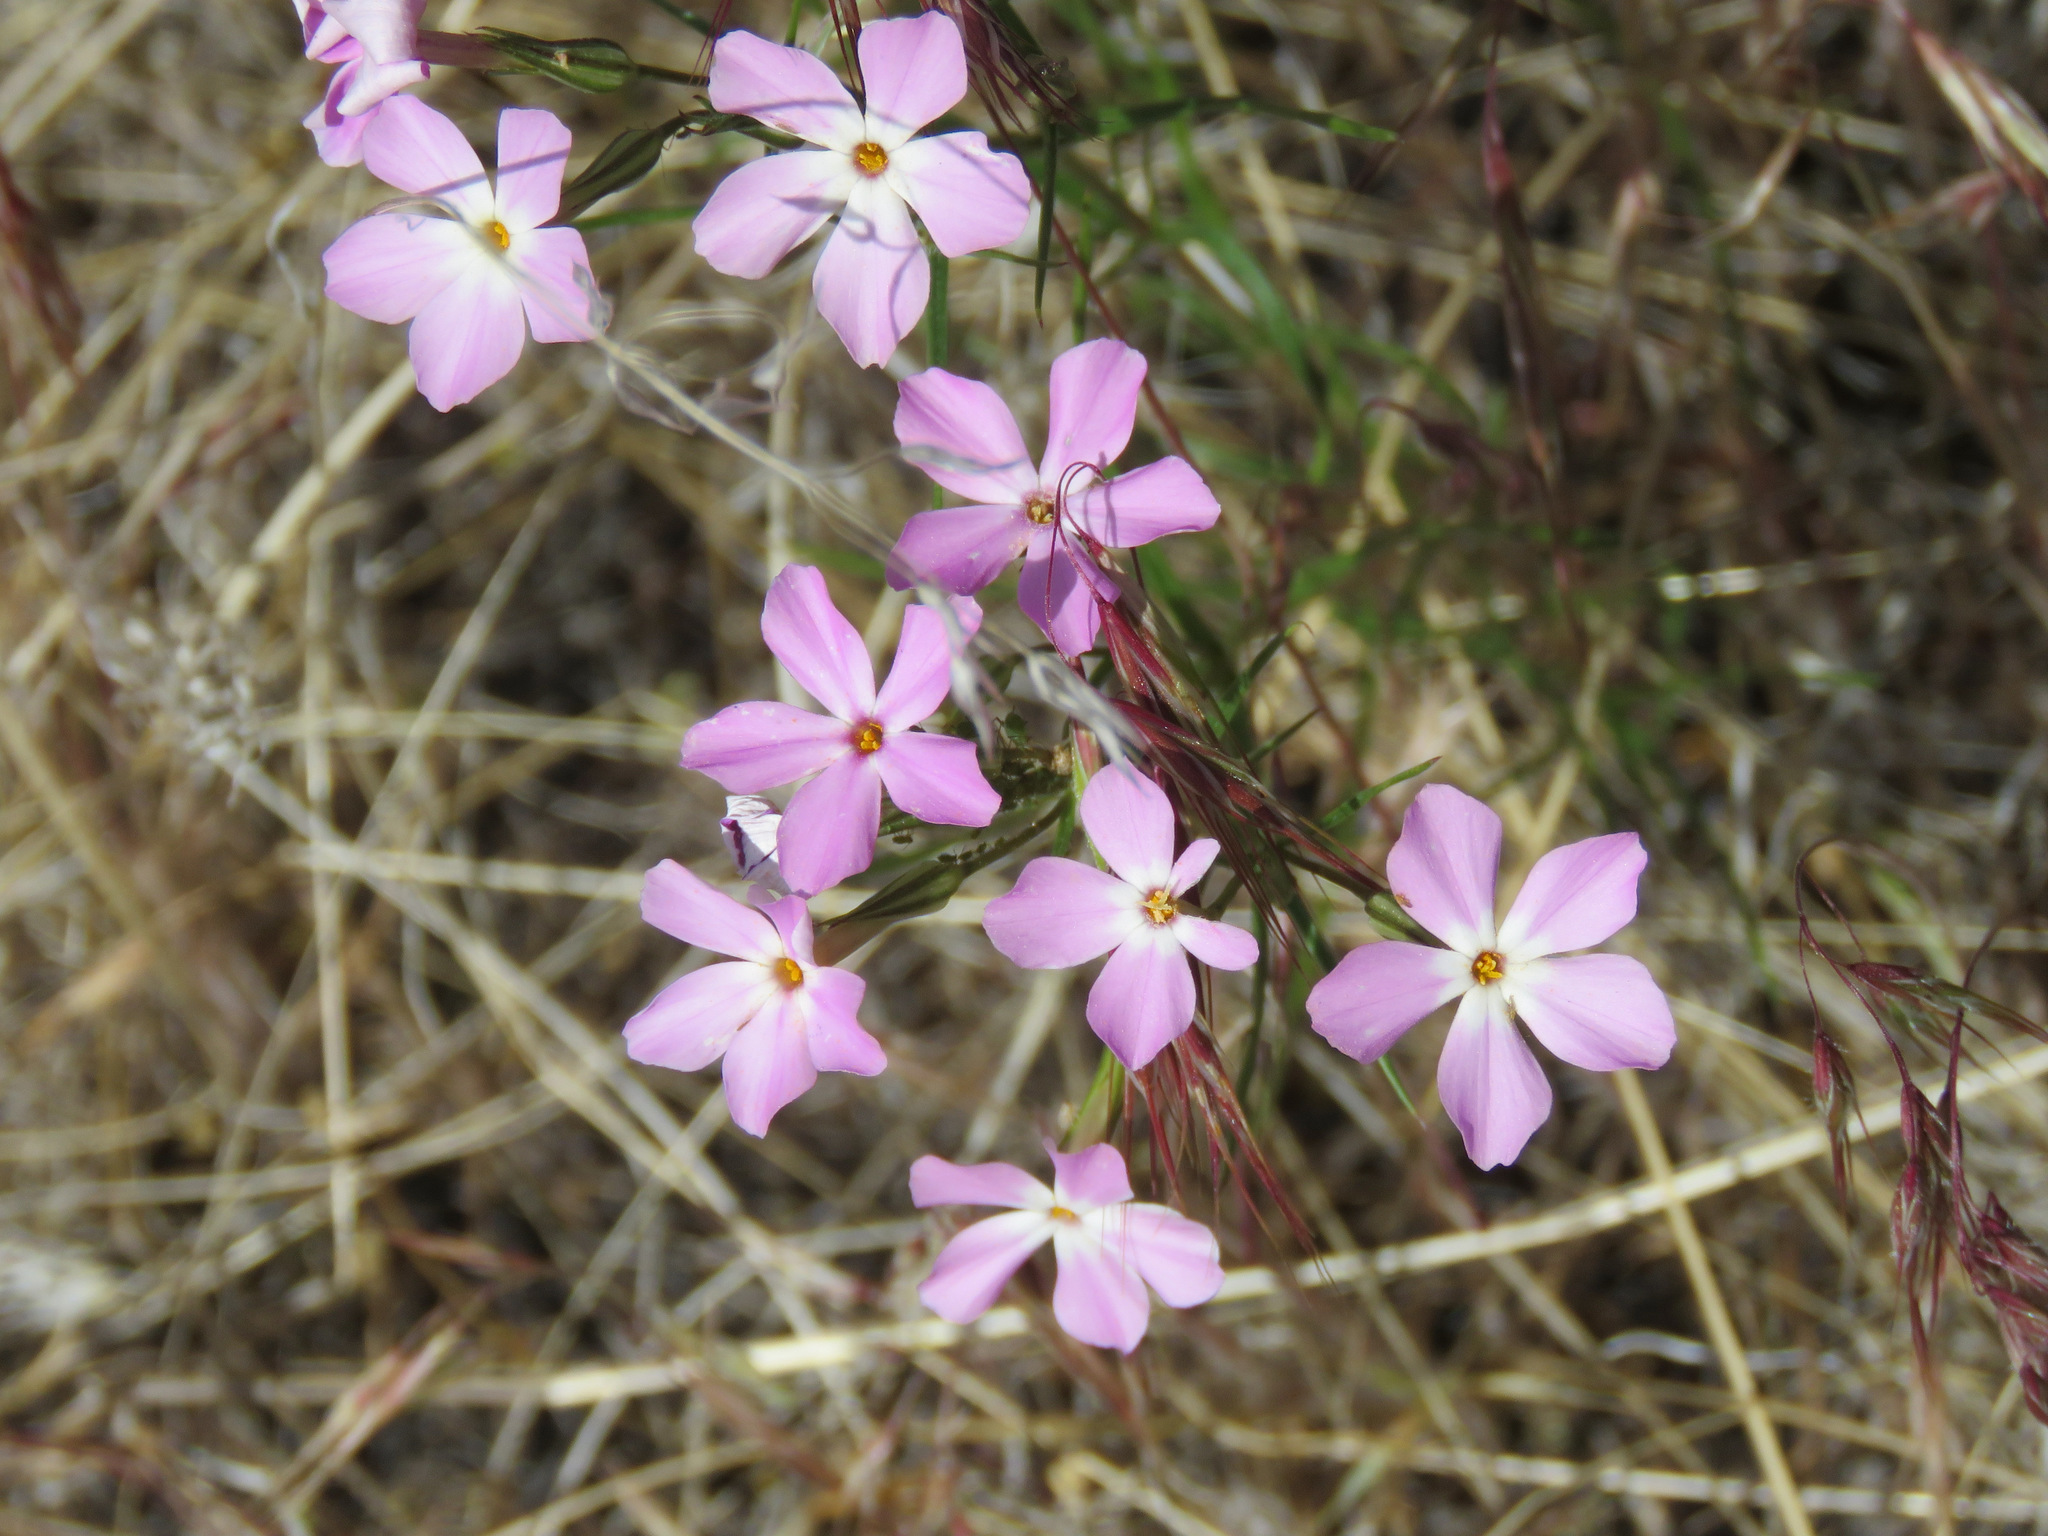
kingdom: Plantae
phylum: Tracheophyta
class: Magnoliopsida
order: Ericales
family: Polemoniaceae
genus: Phlox
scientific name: Phlox longifolia
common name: Longleaf phlox
